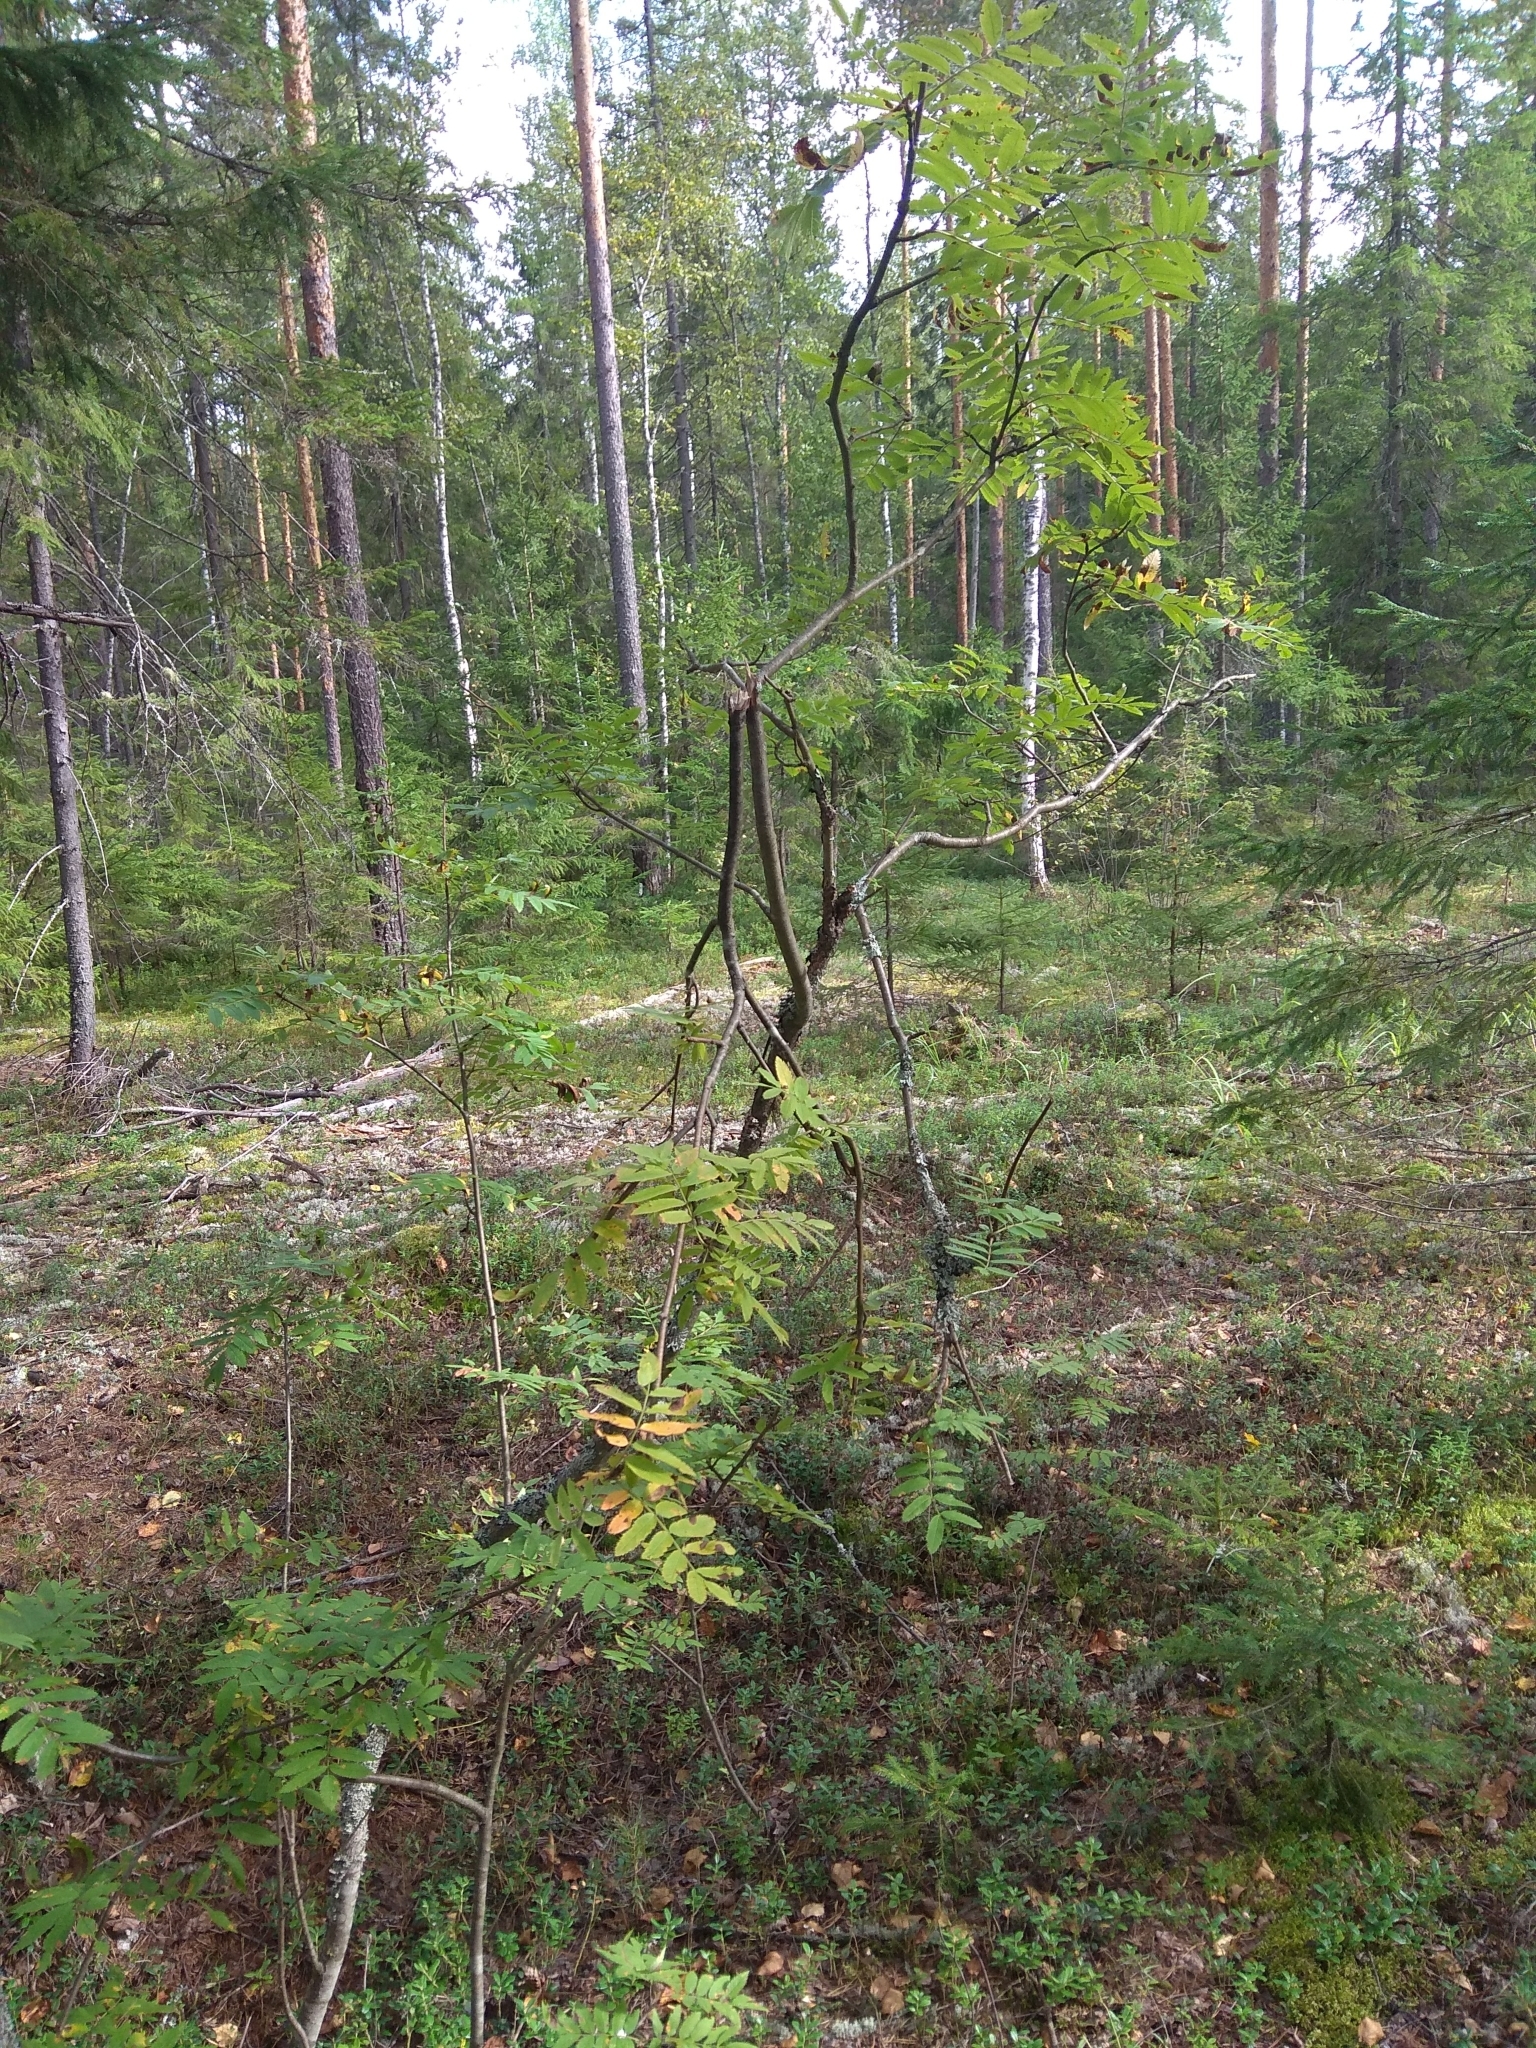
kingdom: Plantae
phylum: Tracheophyta
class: Magnoliopsida
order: Rosales
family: Rosaceae
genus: Sorbus
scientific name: Sorbus aucuparia
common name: Rowan
